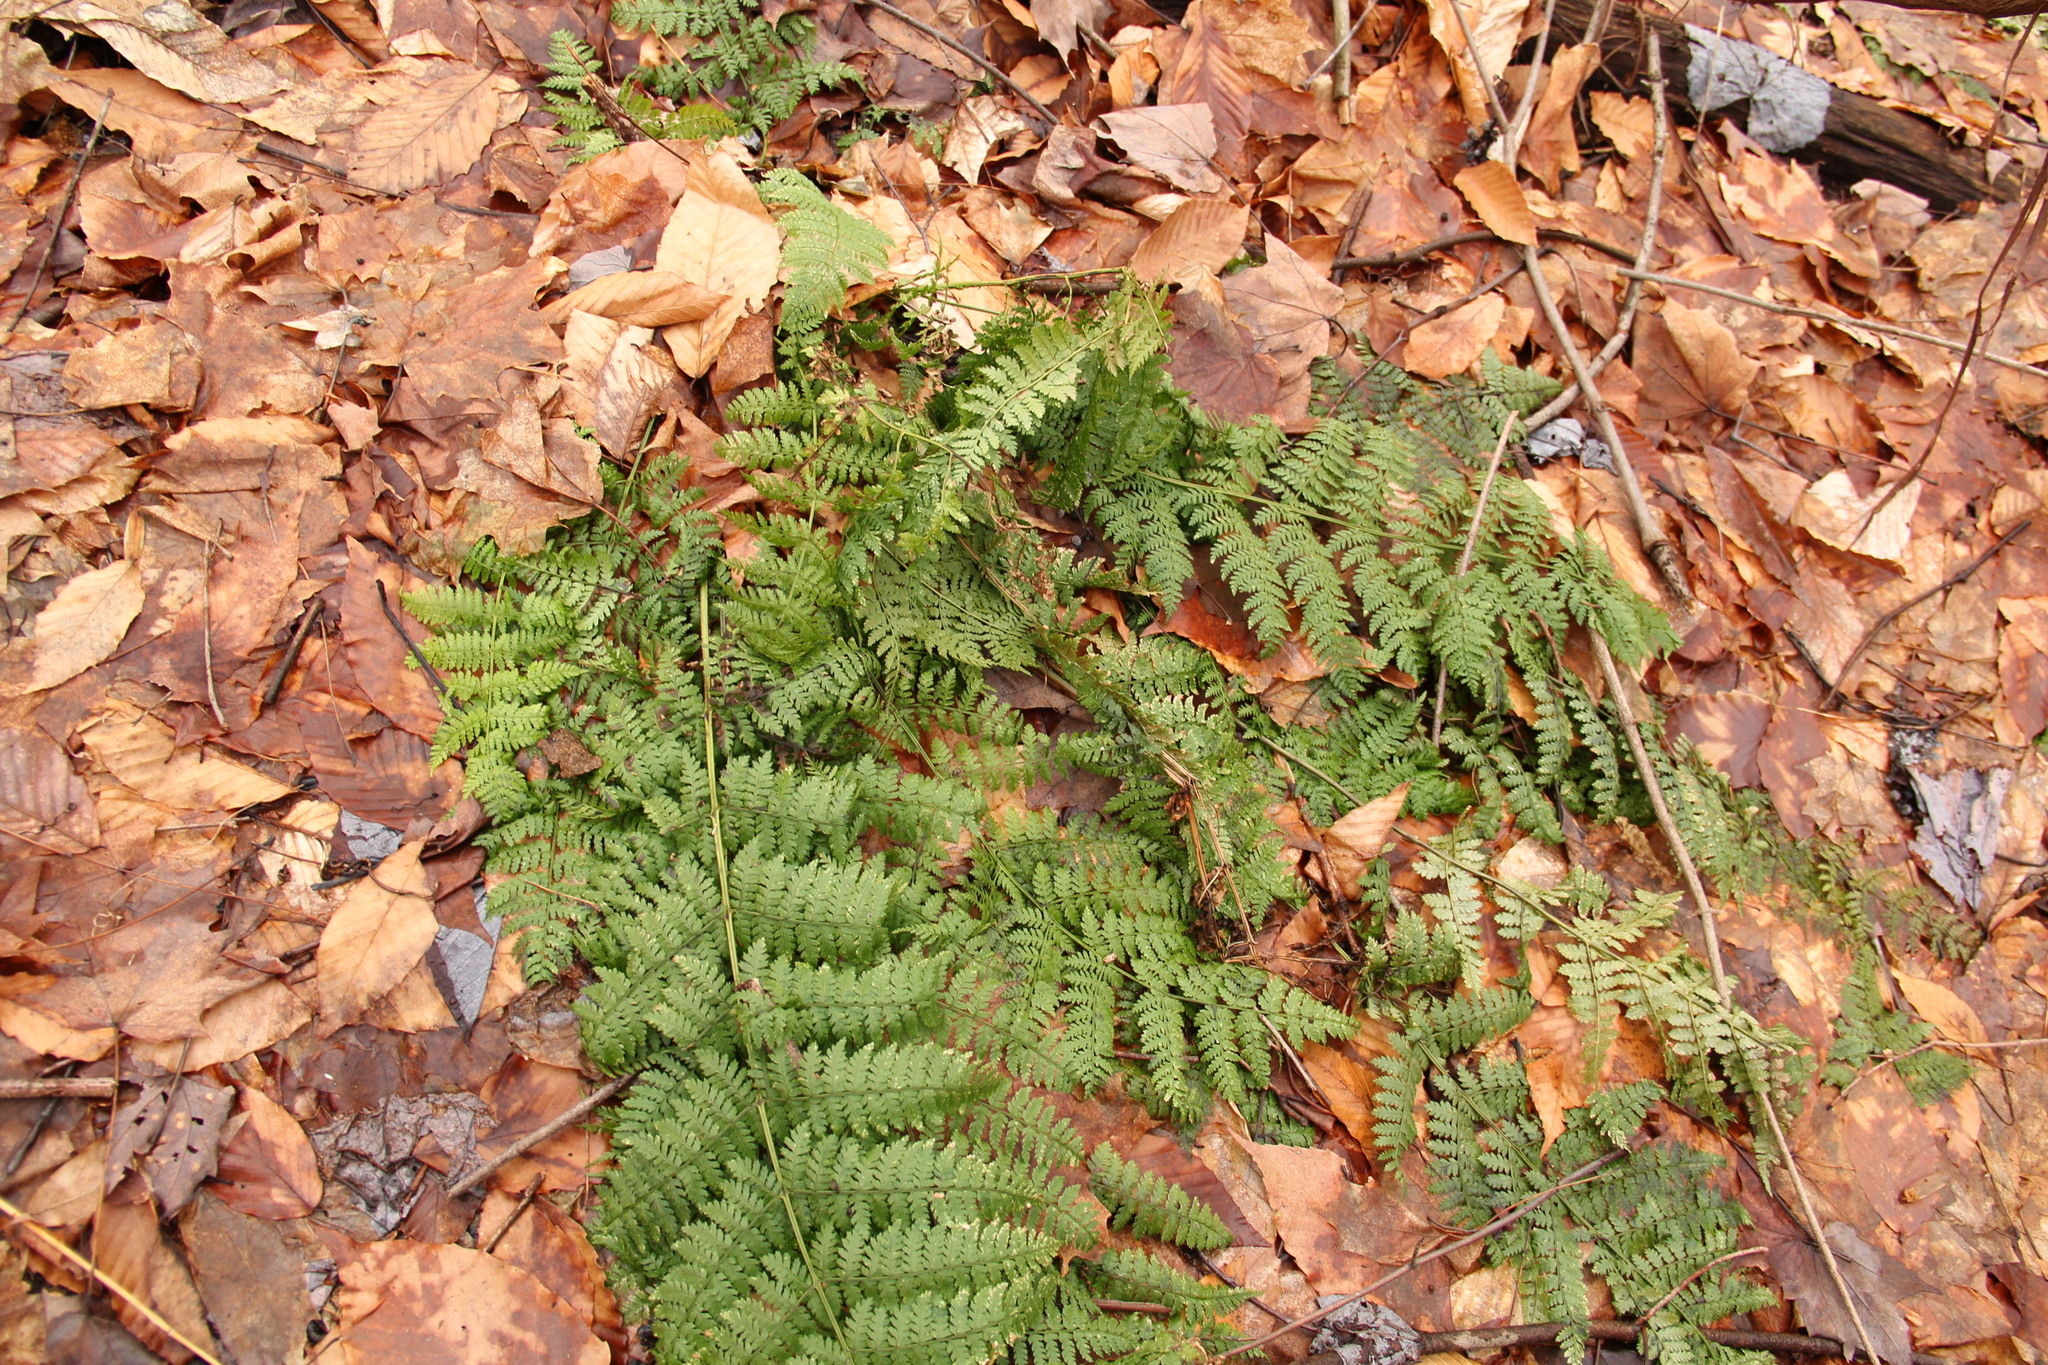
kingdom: Plantae
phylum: Tracheophyta
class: Polypodiopsida
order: Polypodiales
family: Dryopteridaceae
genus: Dryopteris
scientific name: Dryopteris intermedia
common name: Evergreen wood fern
